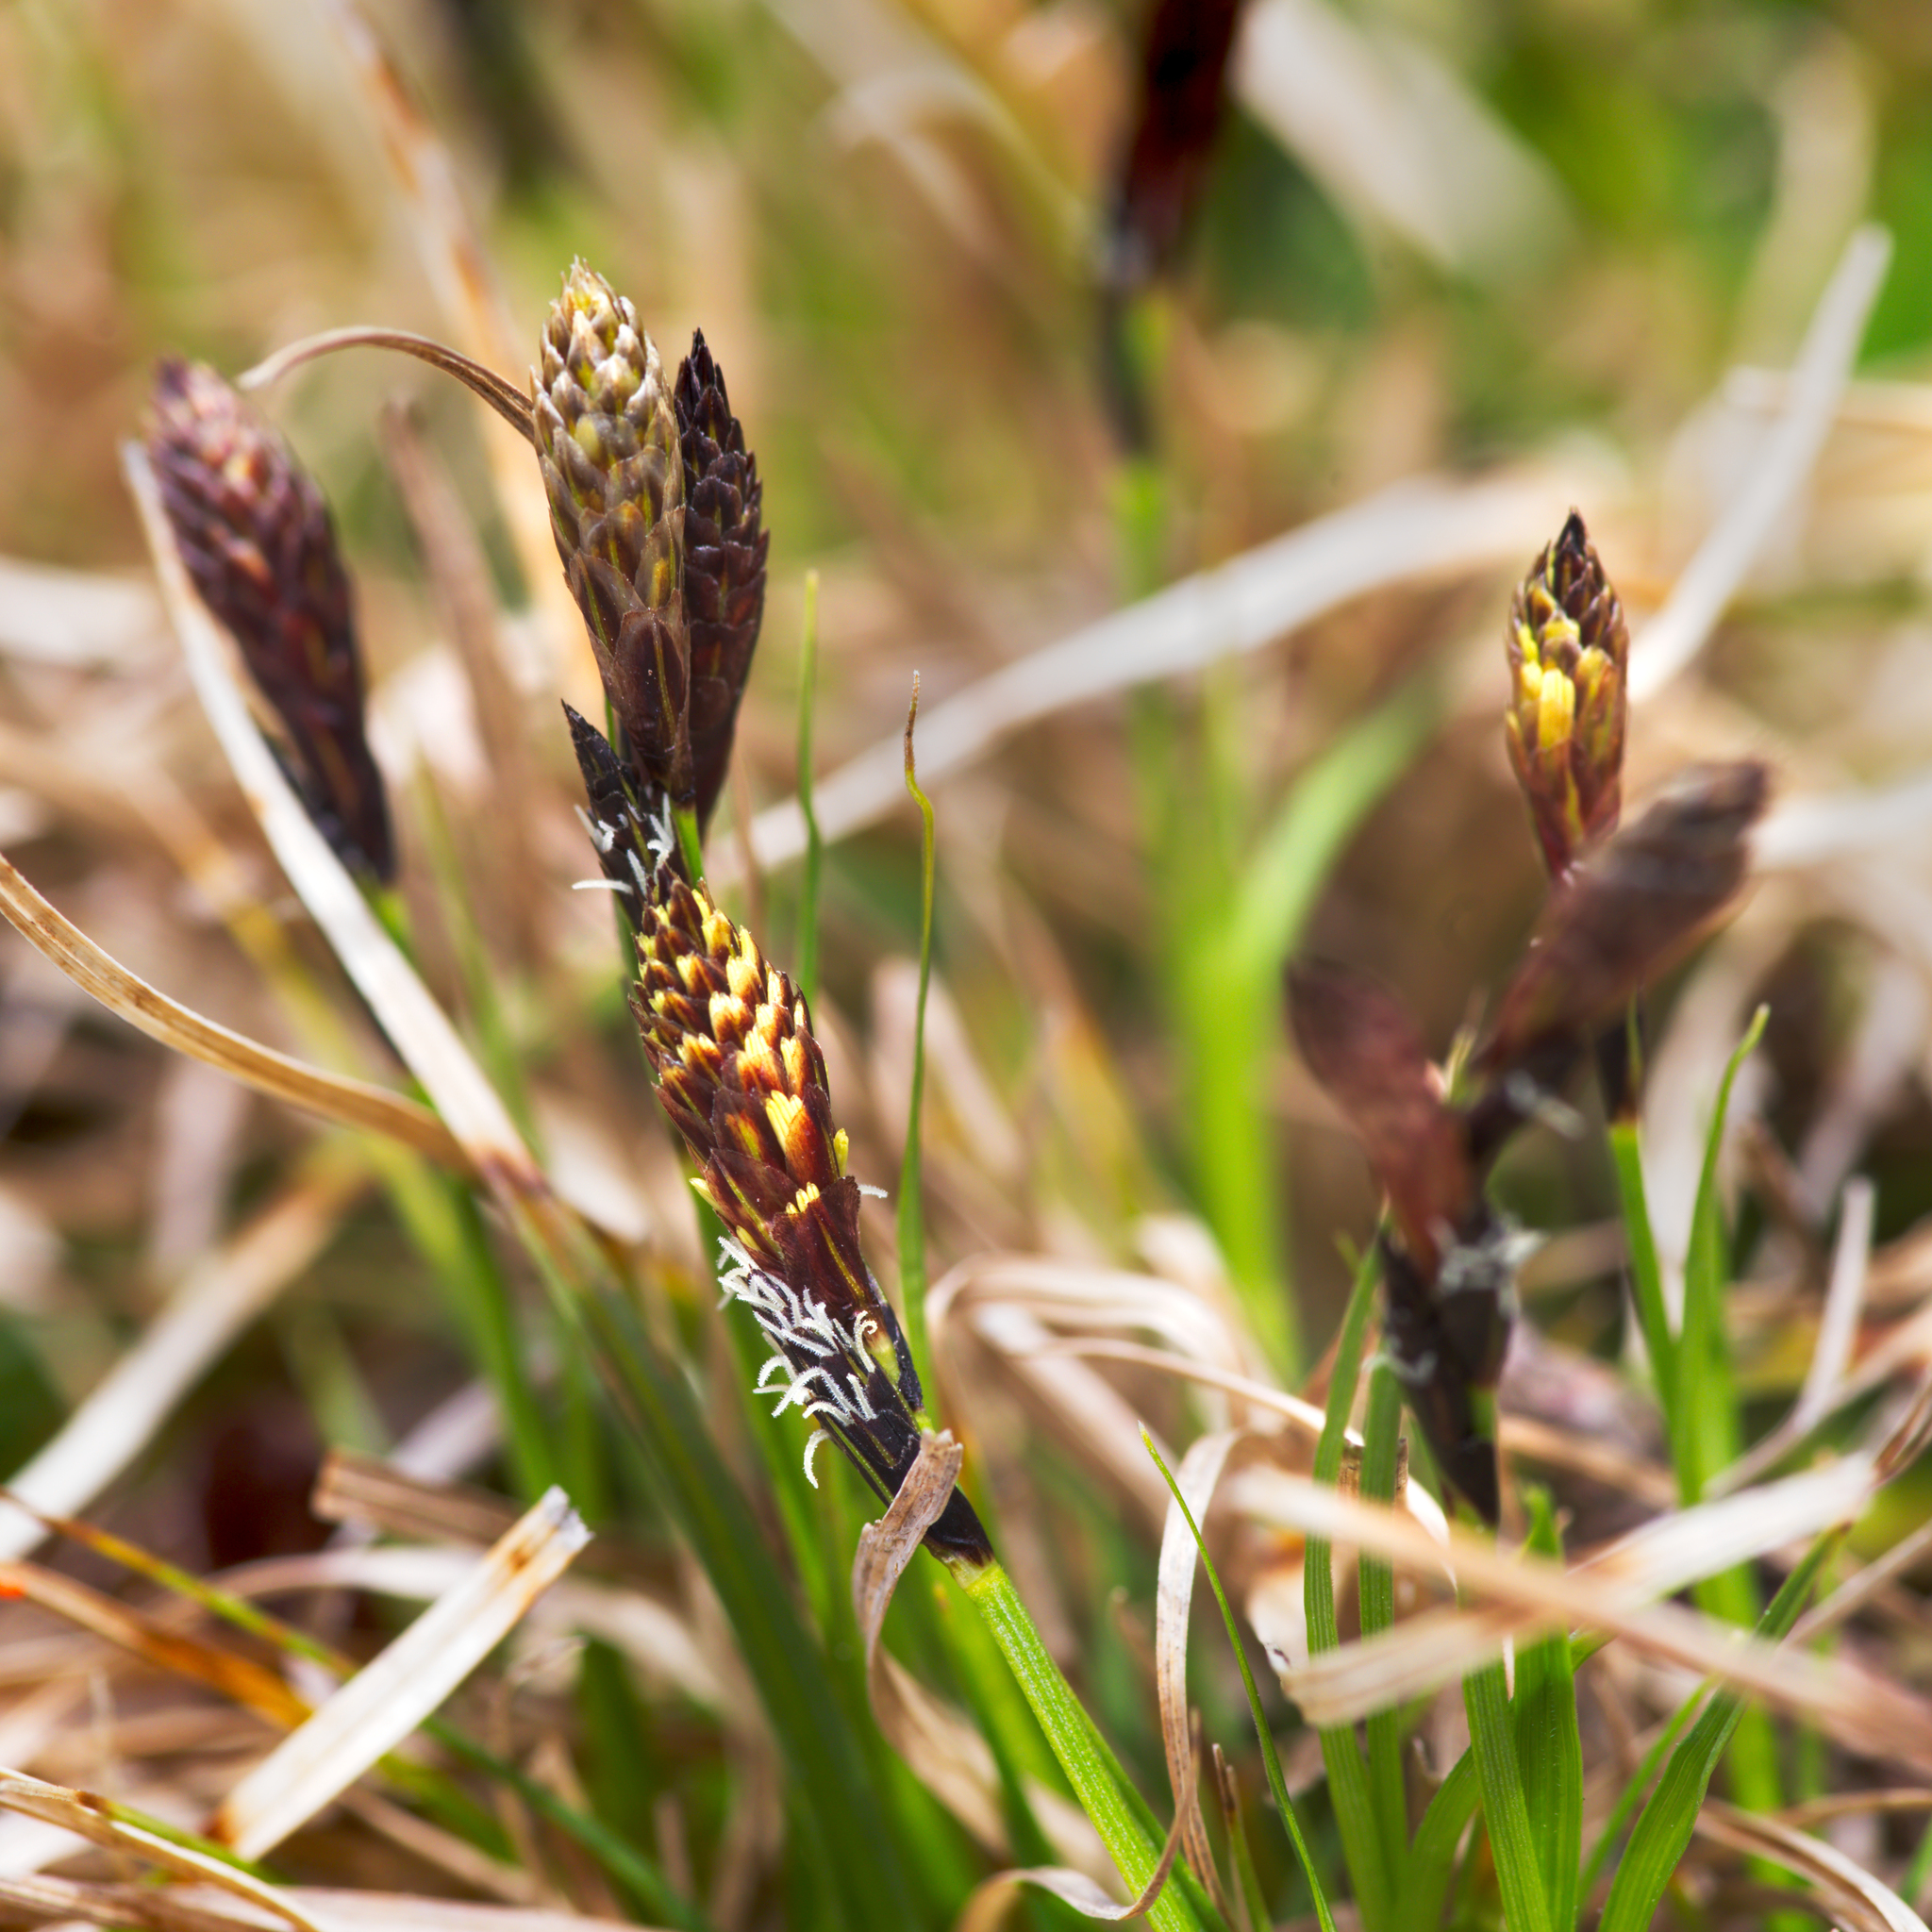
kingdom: Plantae
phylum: Tracheophyta
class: Liliopsida
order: Poales
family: Cyperaceae
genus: Carex
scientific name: Carex humilis
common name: Dwarf sedge
